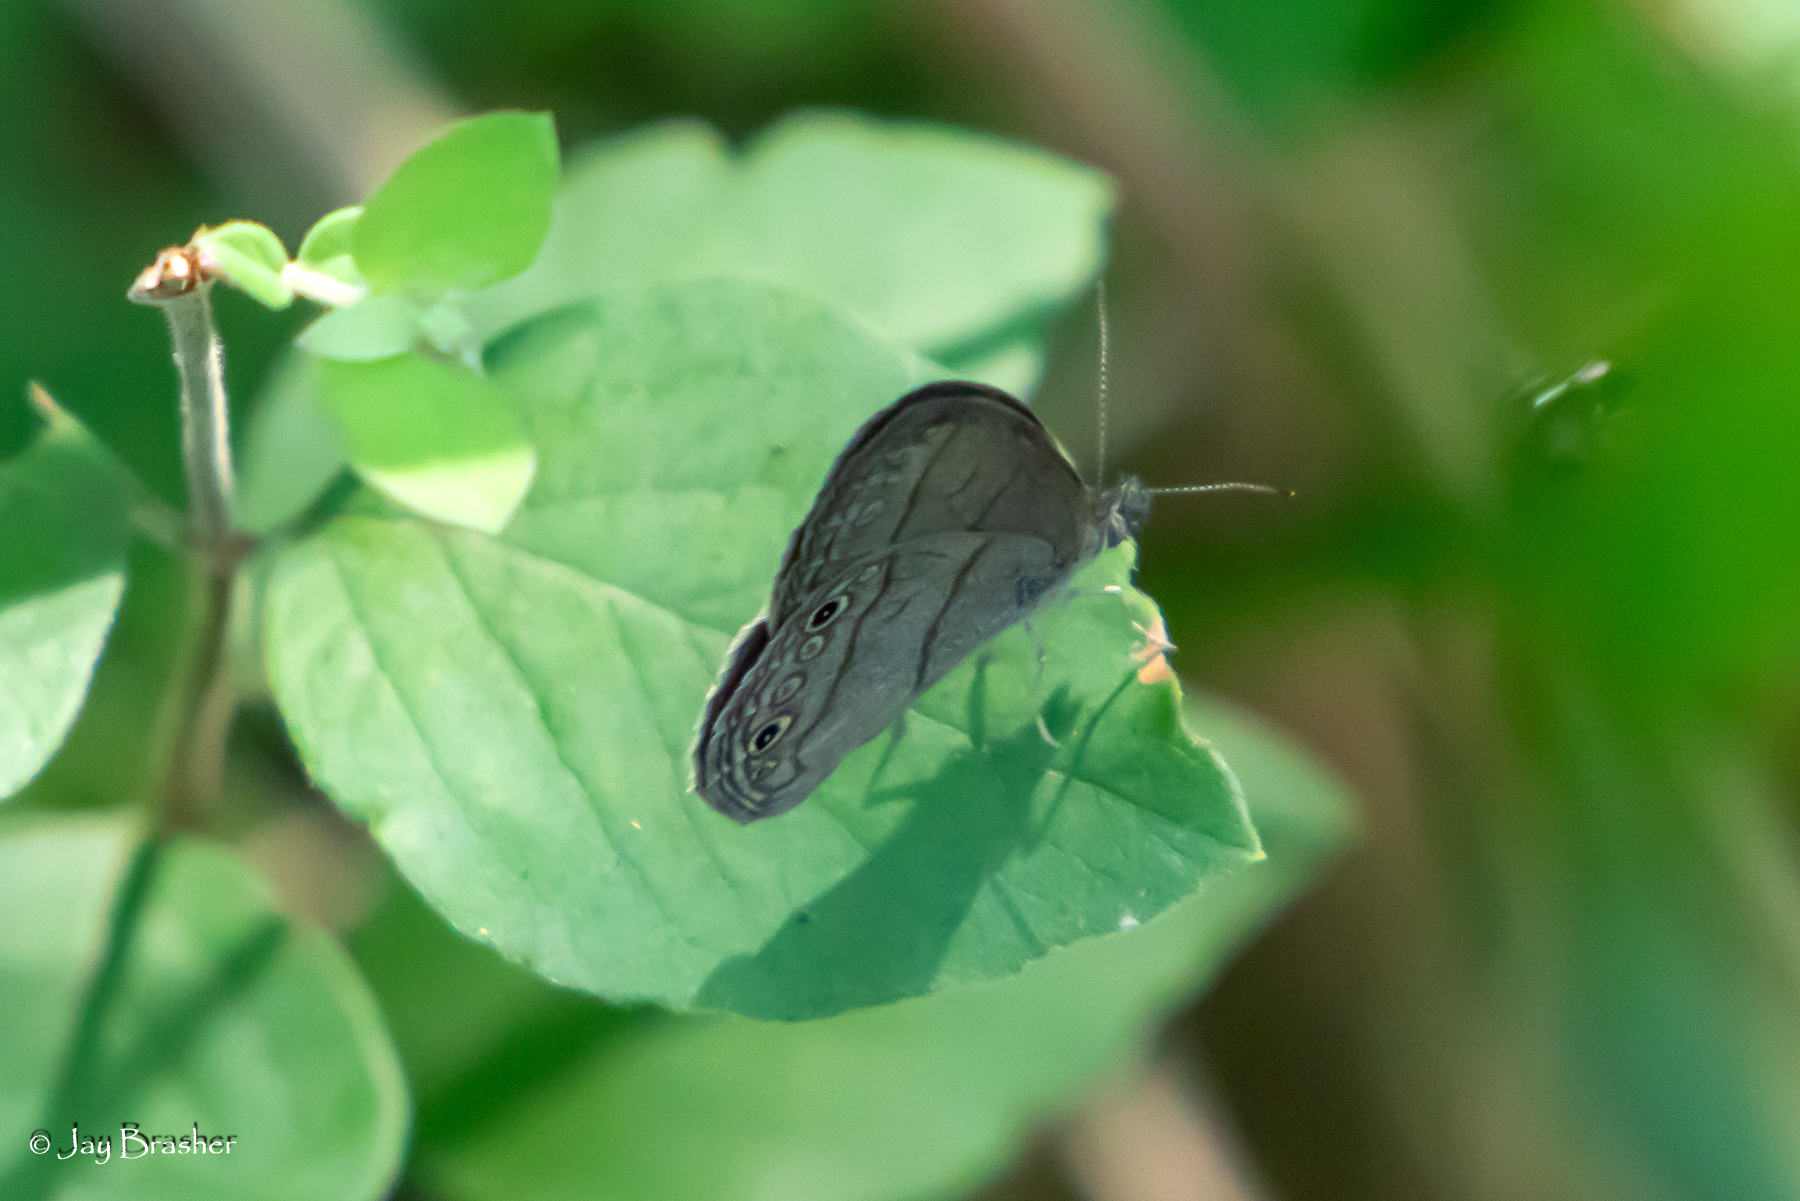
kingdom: Animalia
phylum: Arthropoda
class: Insecta
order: Lepidoptera
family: Nymphalidae
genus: Hermeuptychia
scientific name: Hermeuptychia hermes
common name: Hermes satyr
